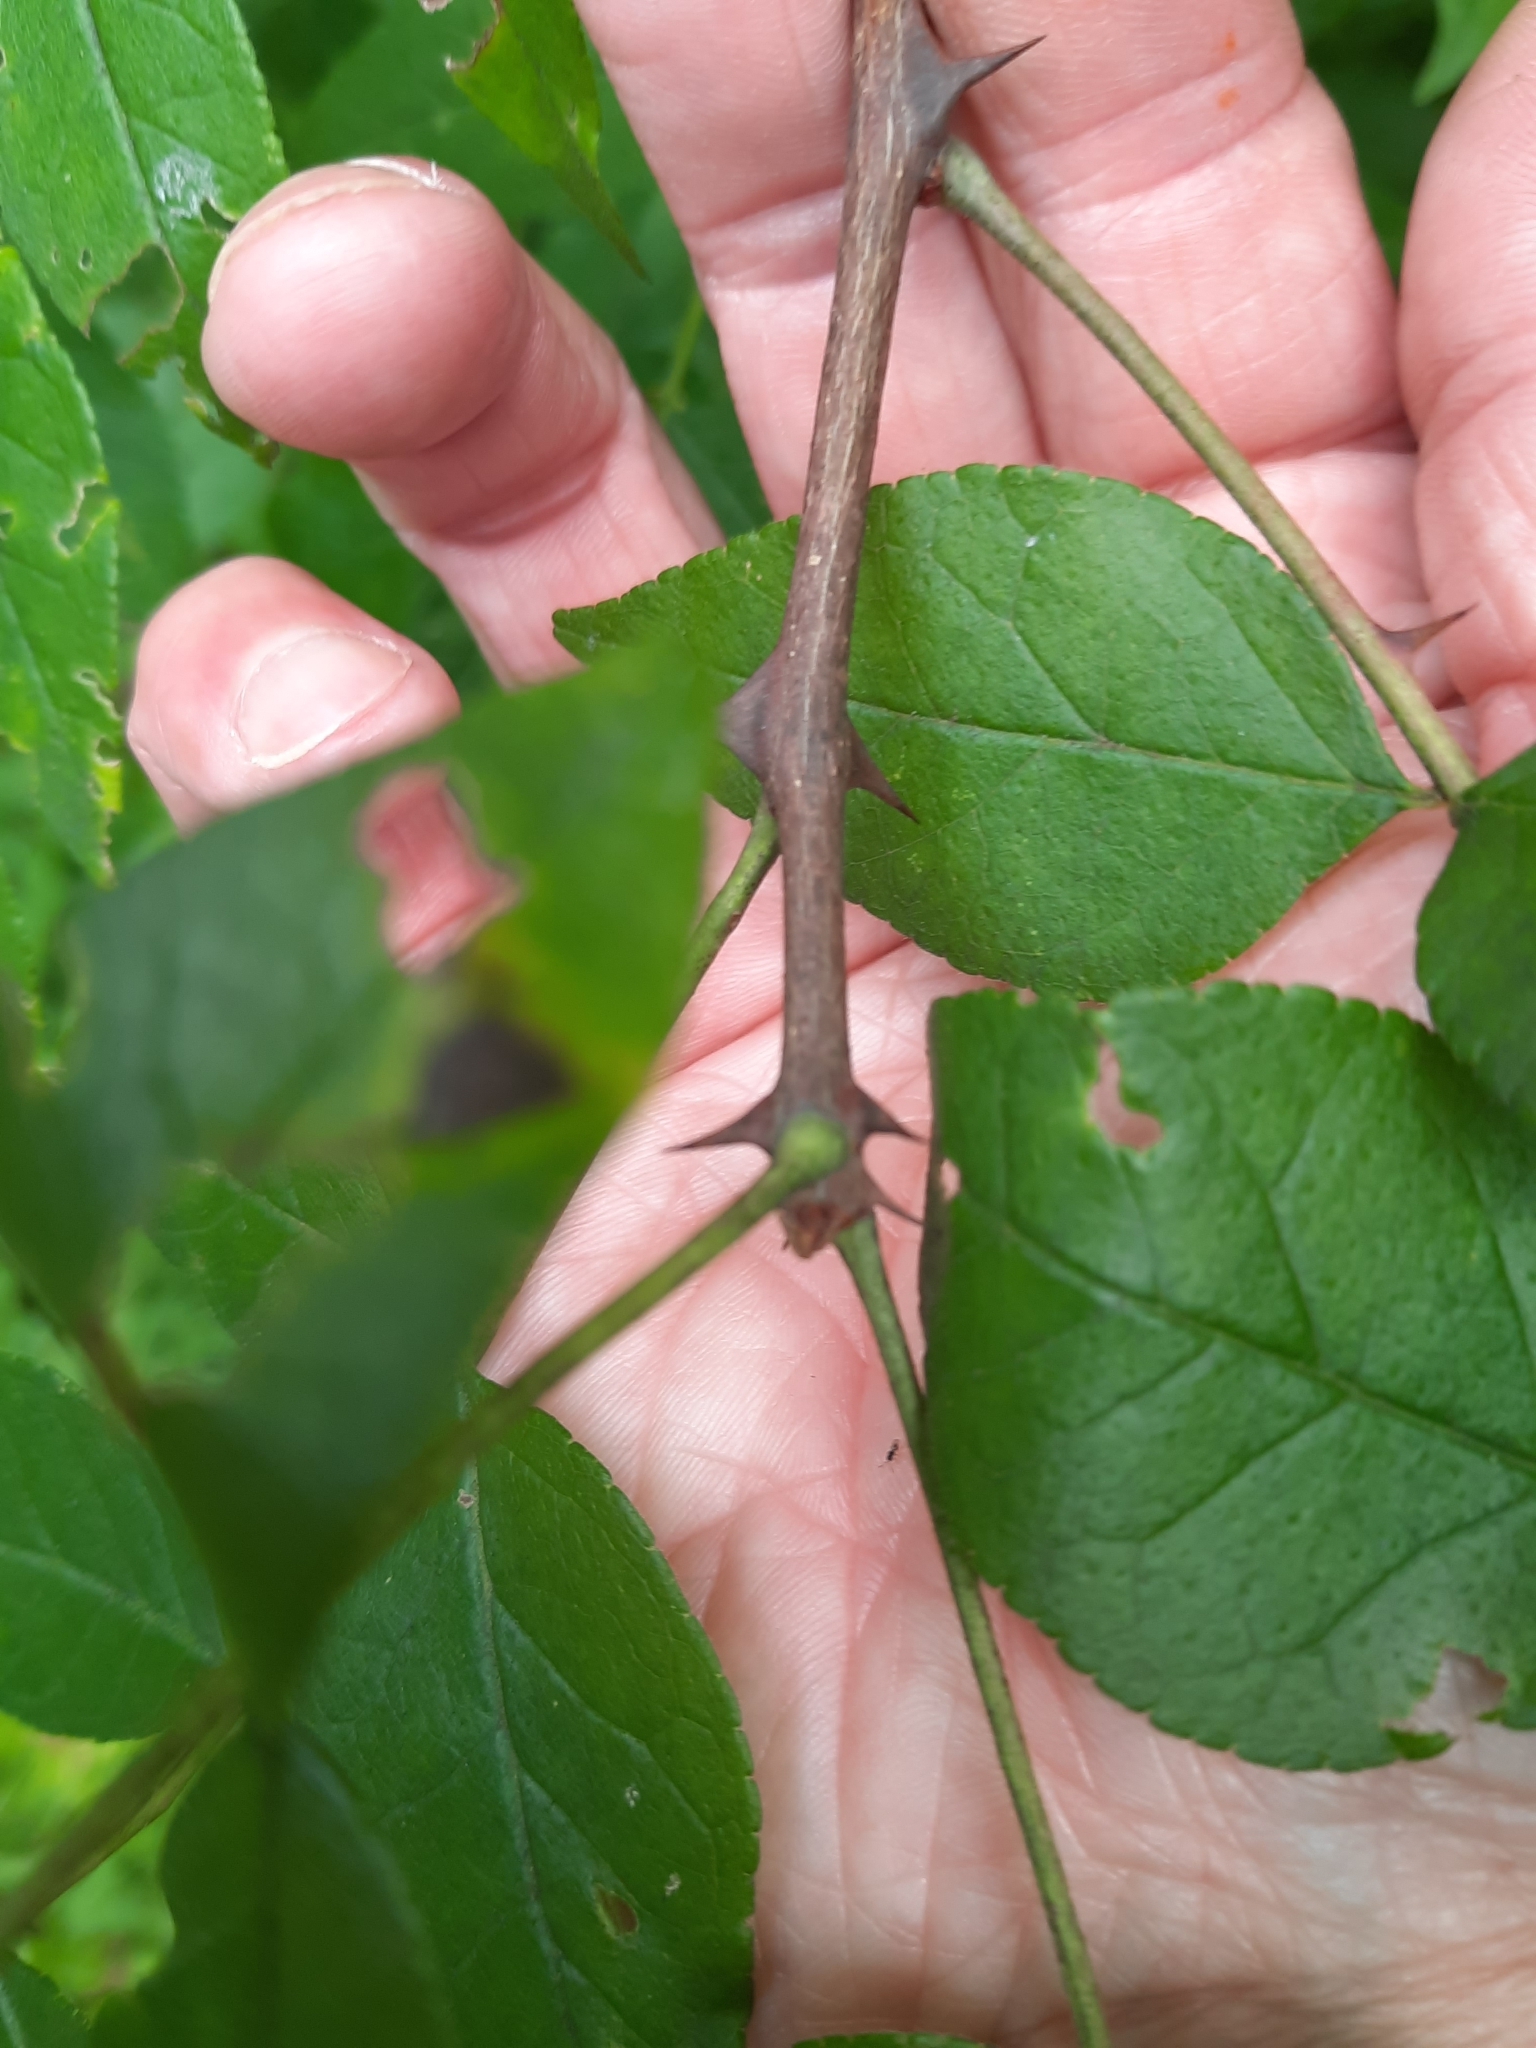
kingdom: Plantae
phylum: Tracheophyta
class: Magnoliopsida
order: Sapindales
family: Rutaceae
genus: Zanthoxylum
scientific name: Zanthoxylum americanum
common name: Northern prickly-ash
